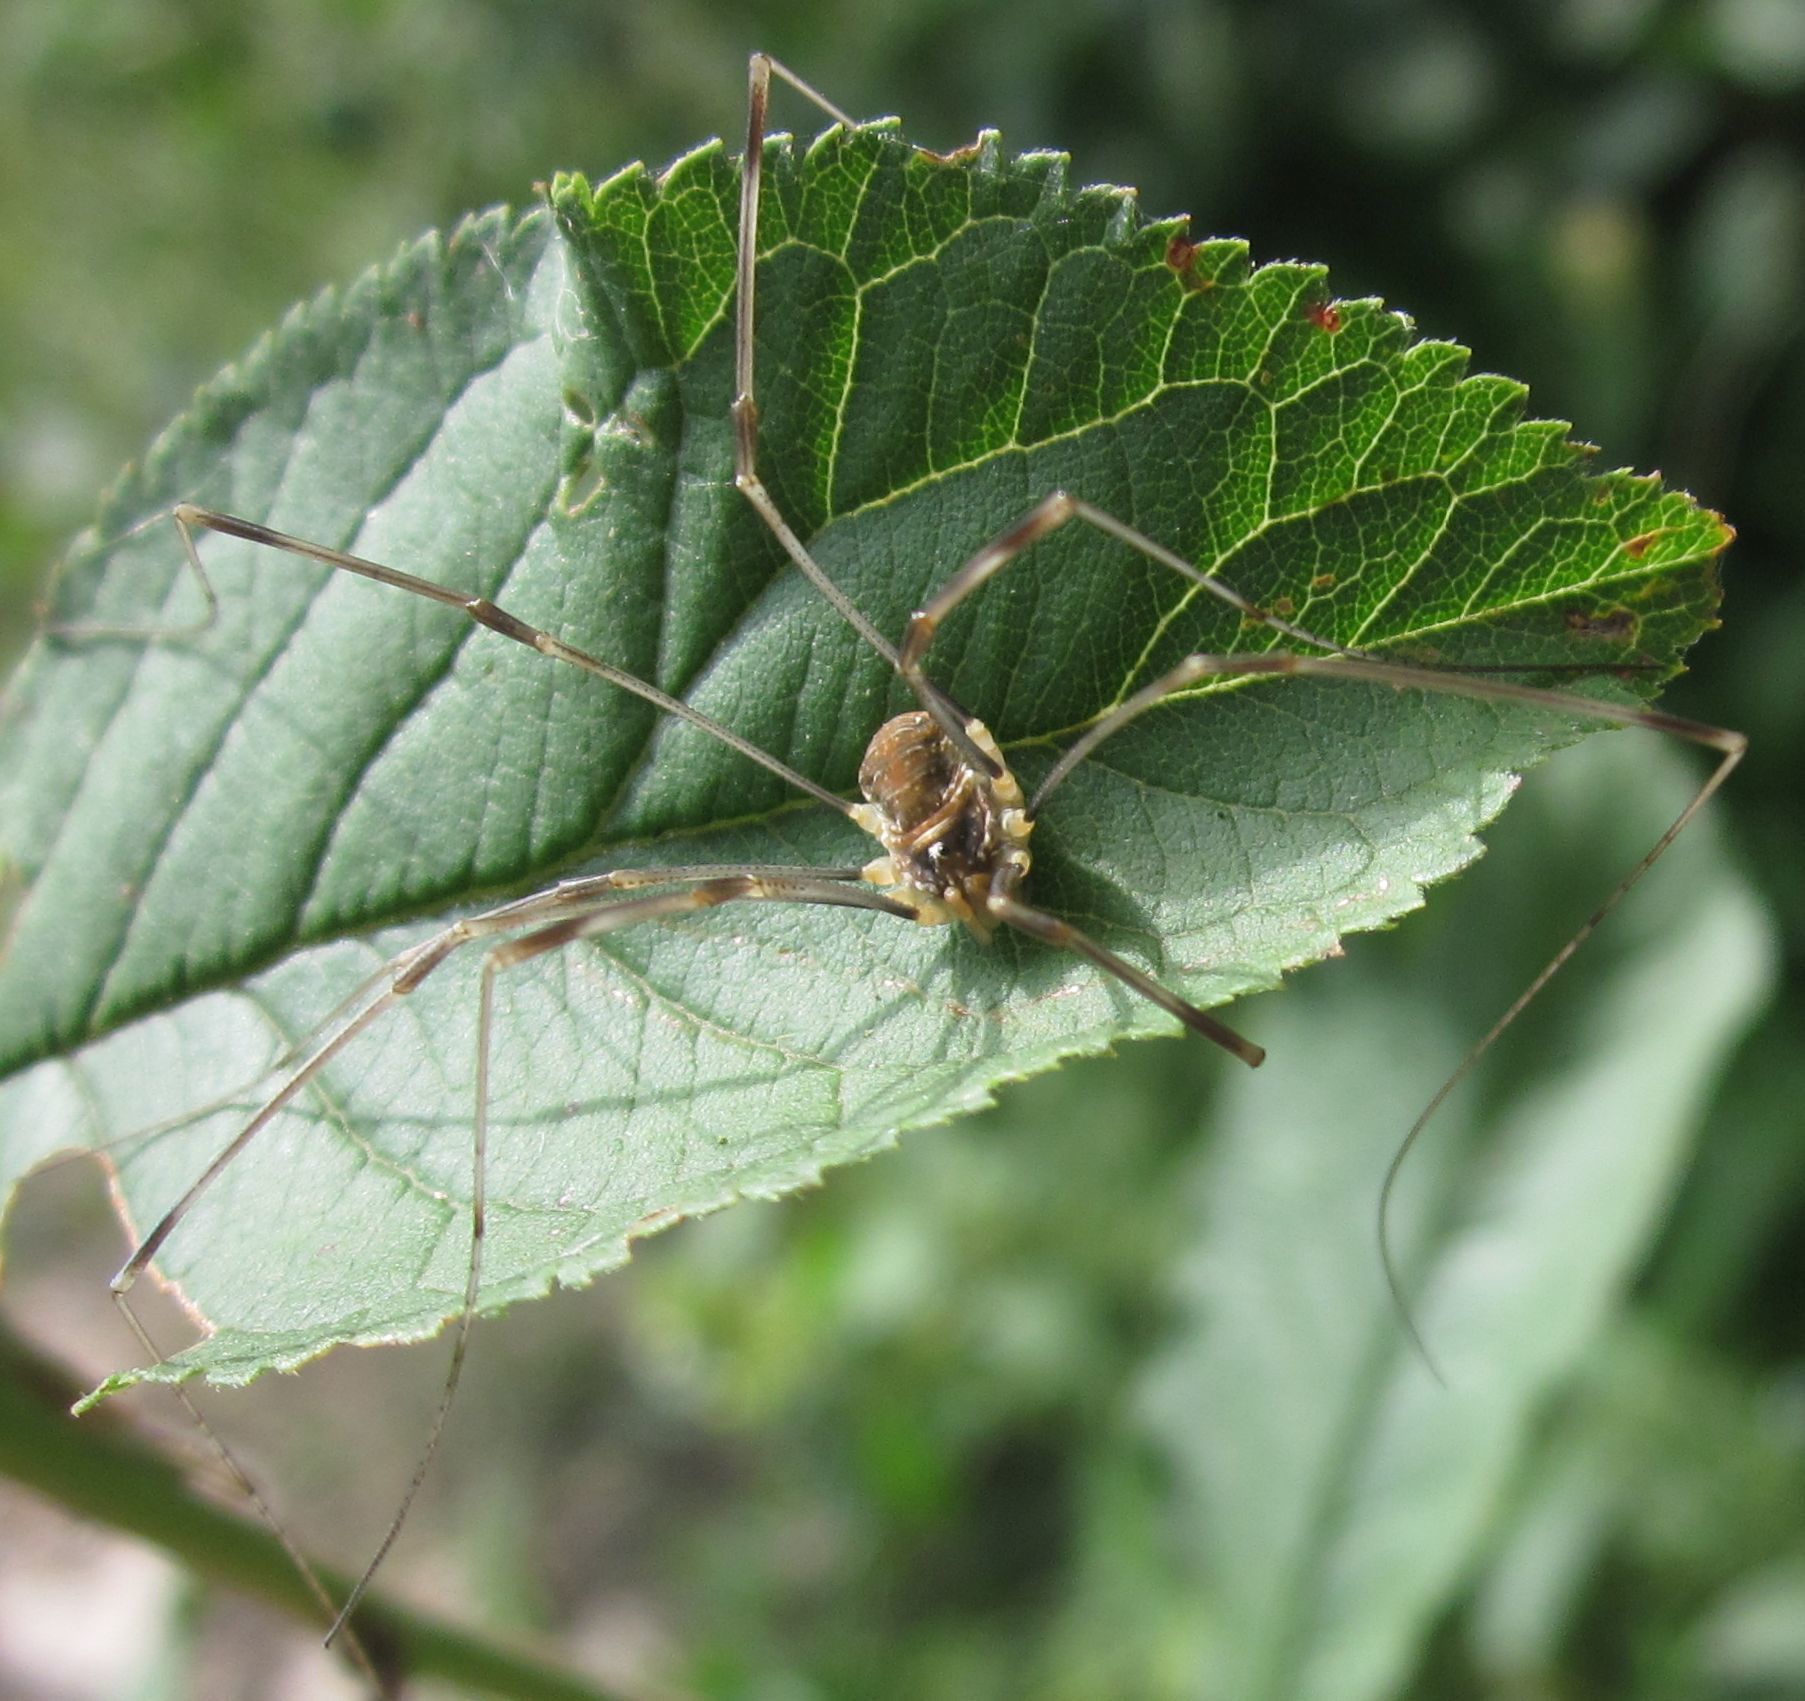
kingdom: Animalia
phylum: Arthropoda
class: Arachnida
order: Opiliones
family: Phalangiidae
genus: Opilio
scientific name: Opilio canestrinii
